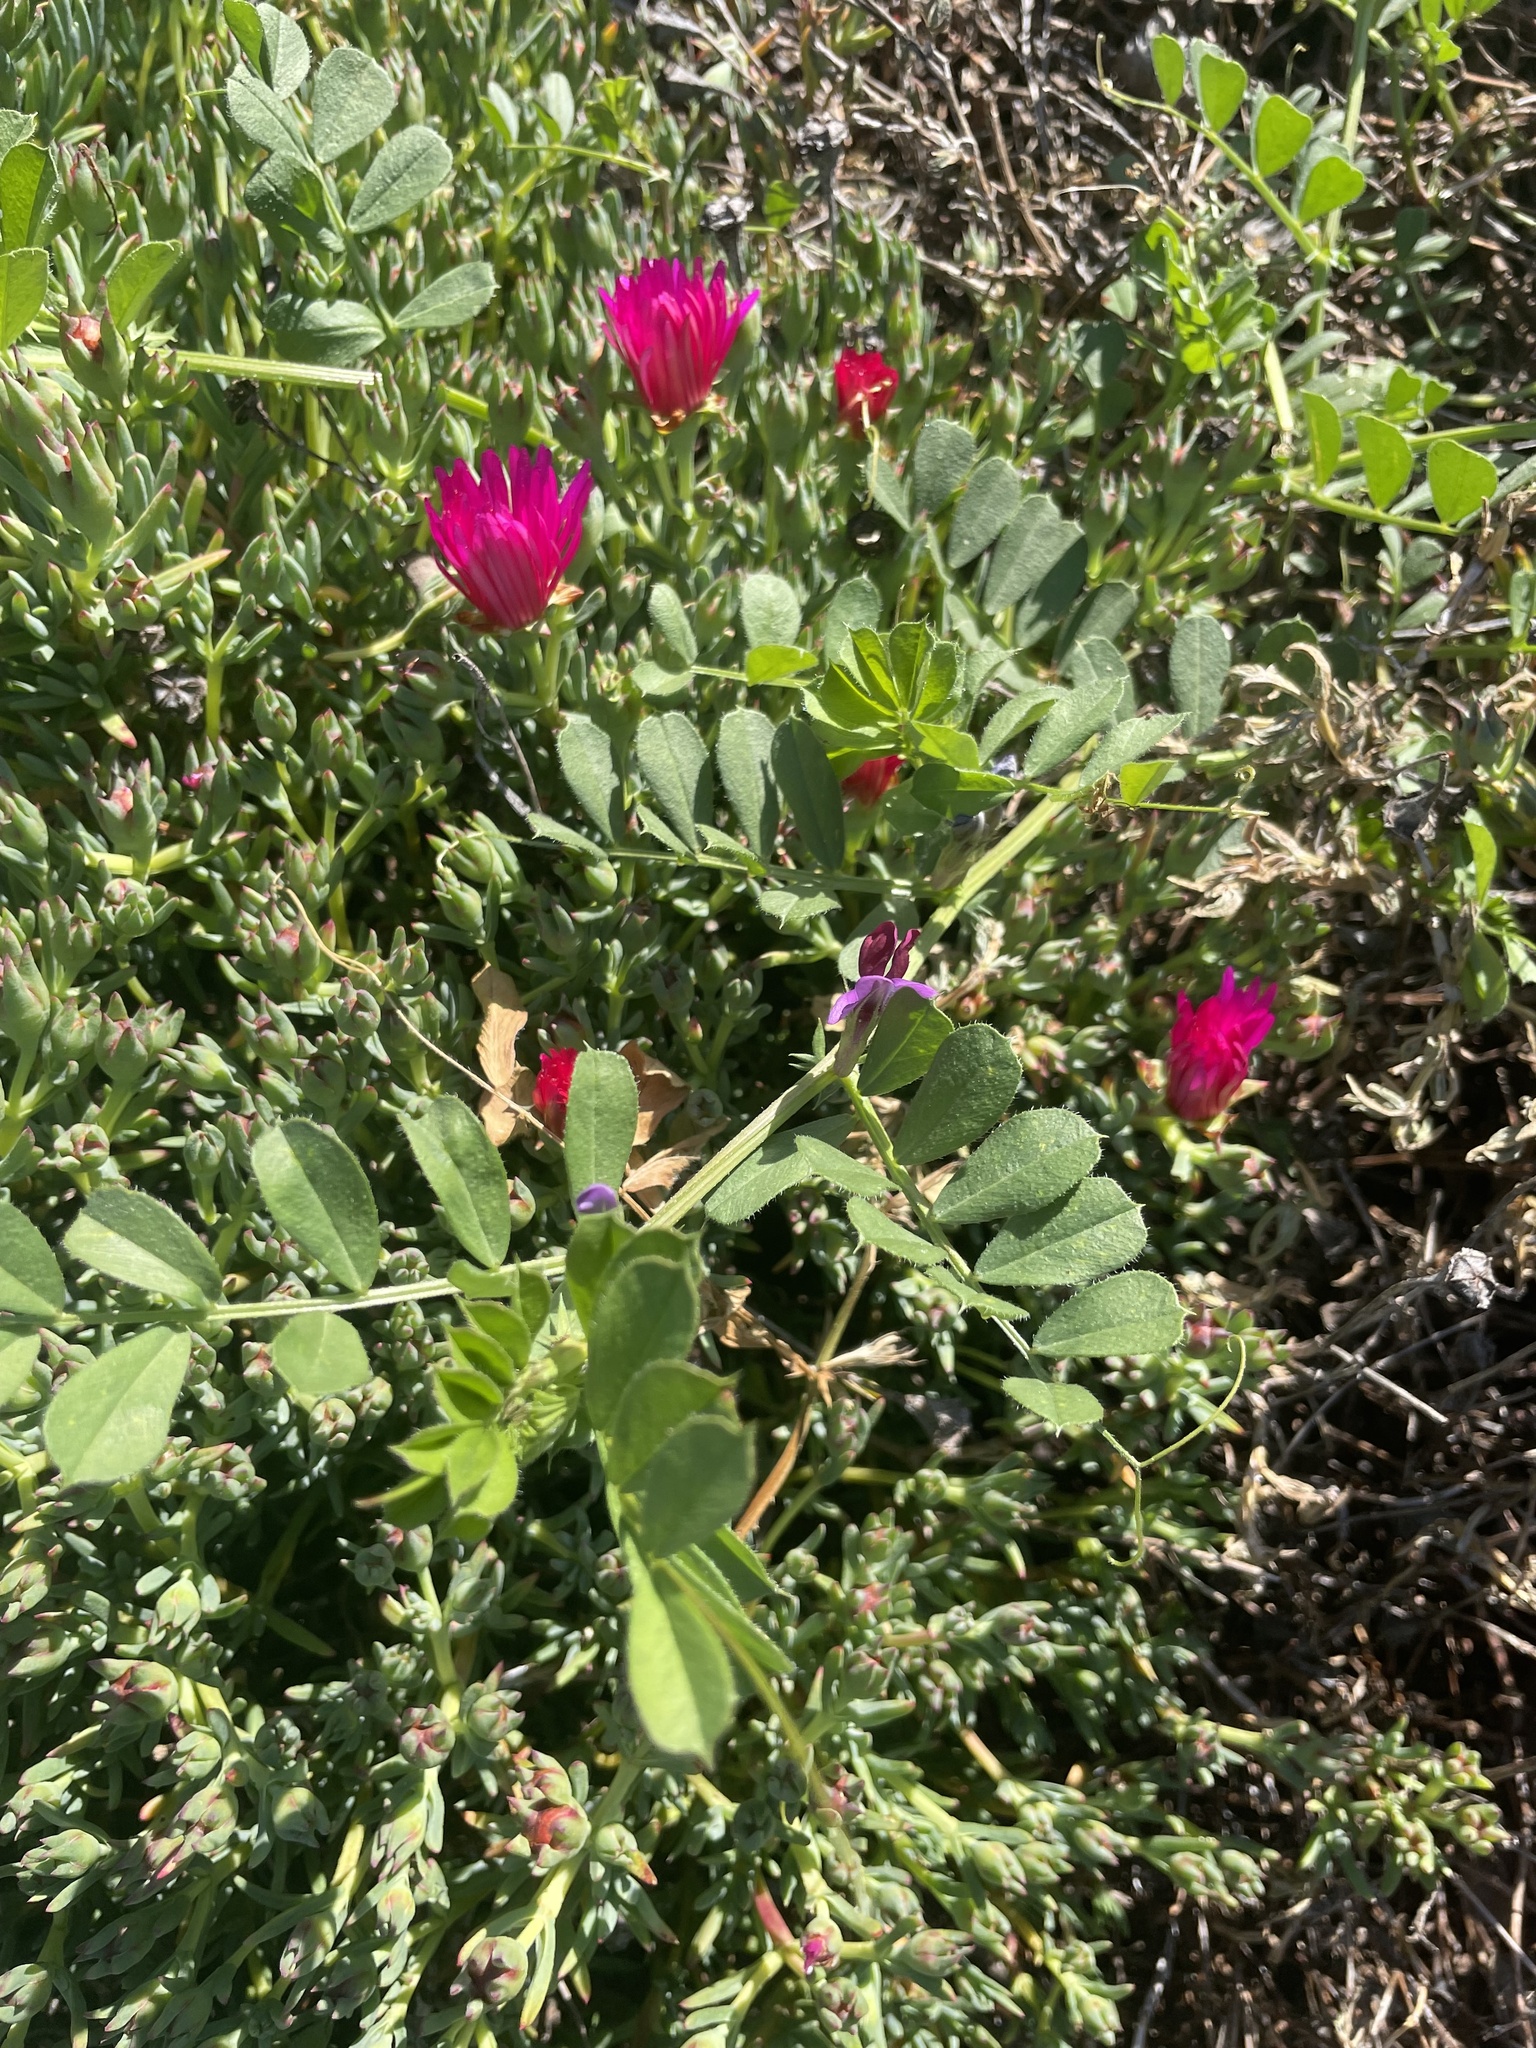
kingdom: Plantae
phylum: Tracheophyta
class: Magnoliopsida
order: Fabales
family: Fabaceae
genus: Vicia
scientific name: Vicia sativa
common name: Garden vetch
